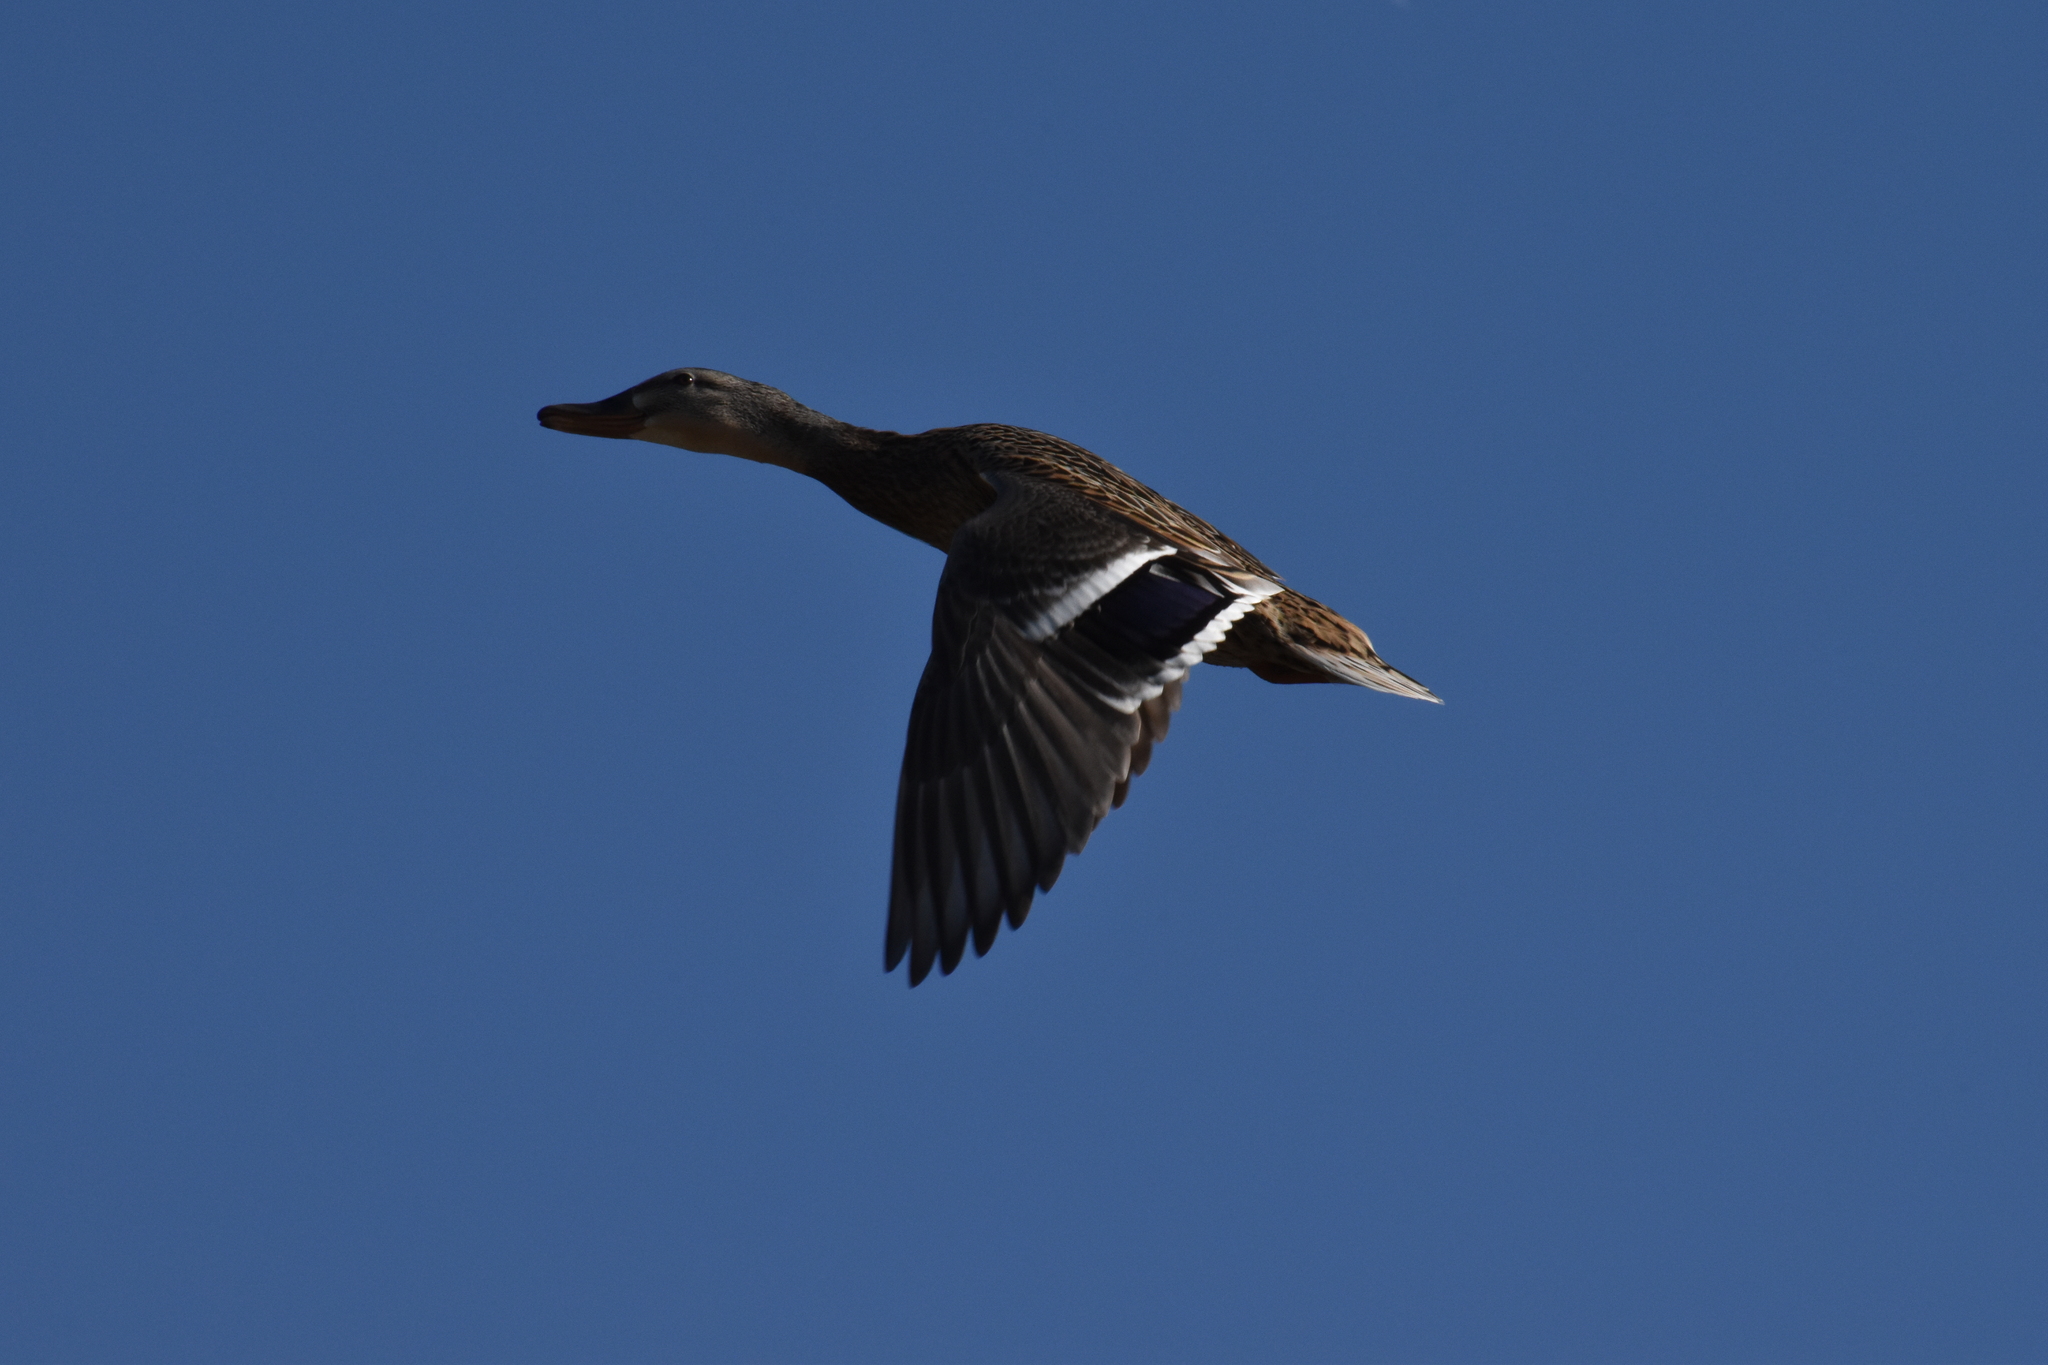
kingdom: Animalia
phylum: Chordata
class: Aves
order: Anseriformes
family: Anatidae
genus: Anas
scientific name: Anas platyrhynchos
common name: Mallard
